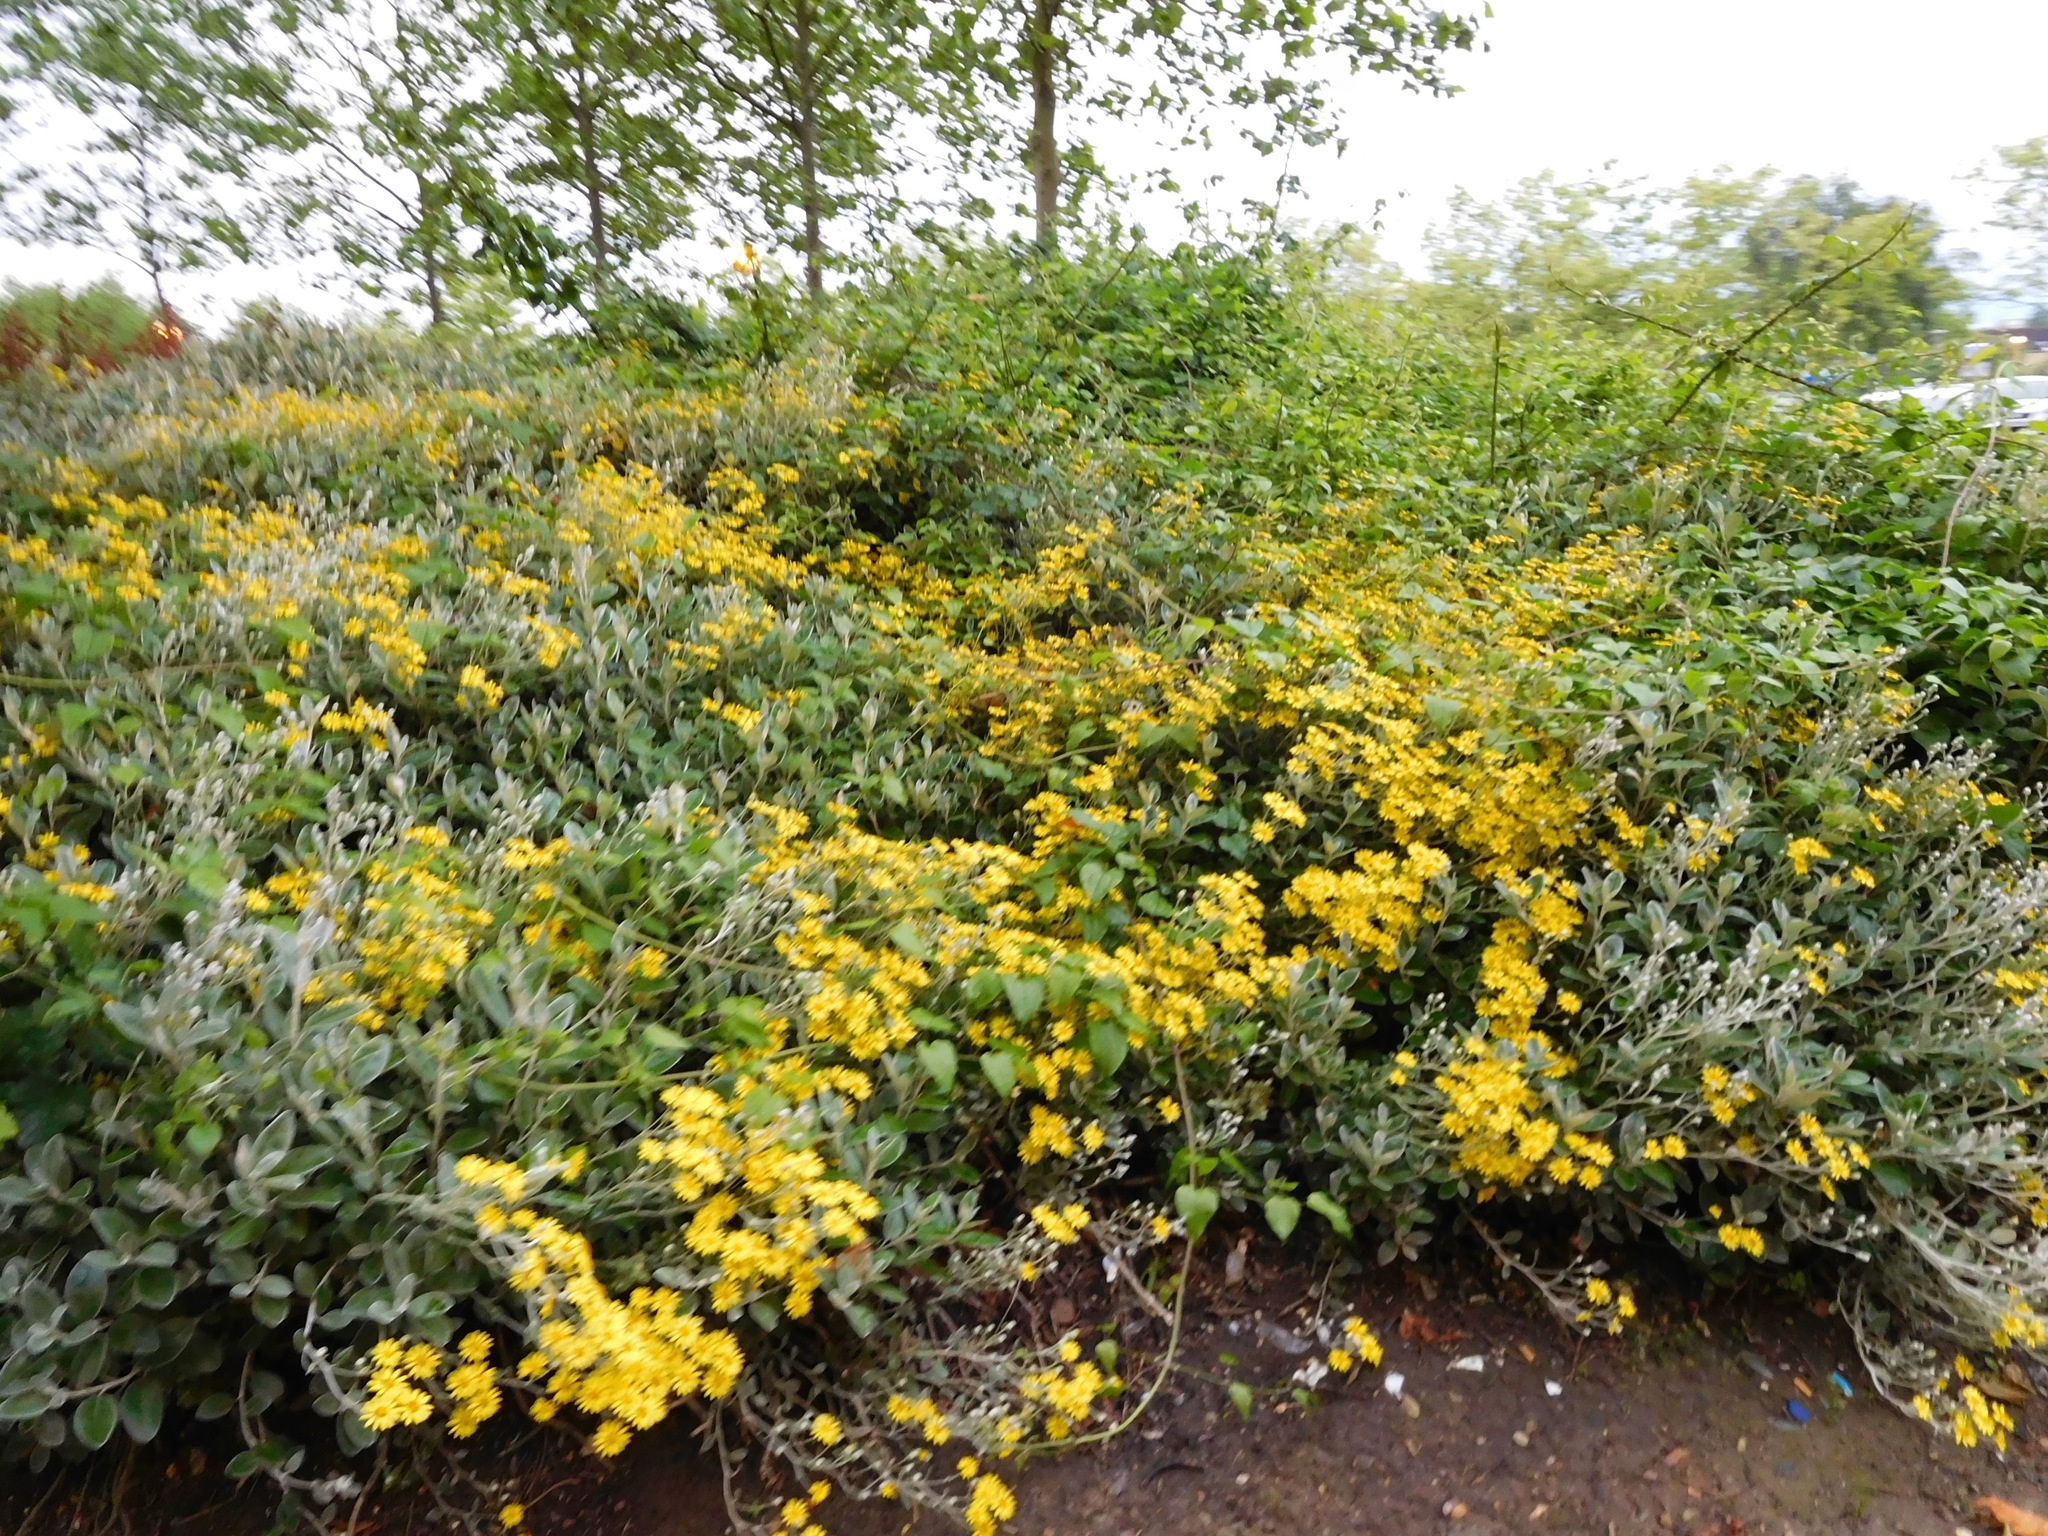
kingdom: Plantae
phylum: Tracheophyta
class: Magnoliopsida
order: Asterales
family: Asteraceae
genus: Brachyglottis
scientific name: Brachyglottis jubar
